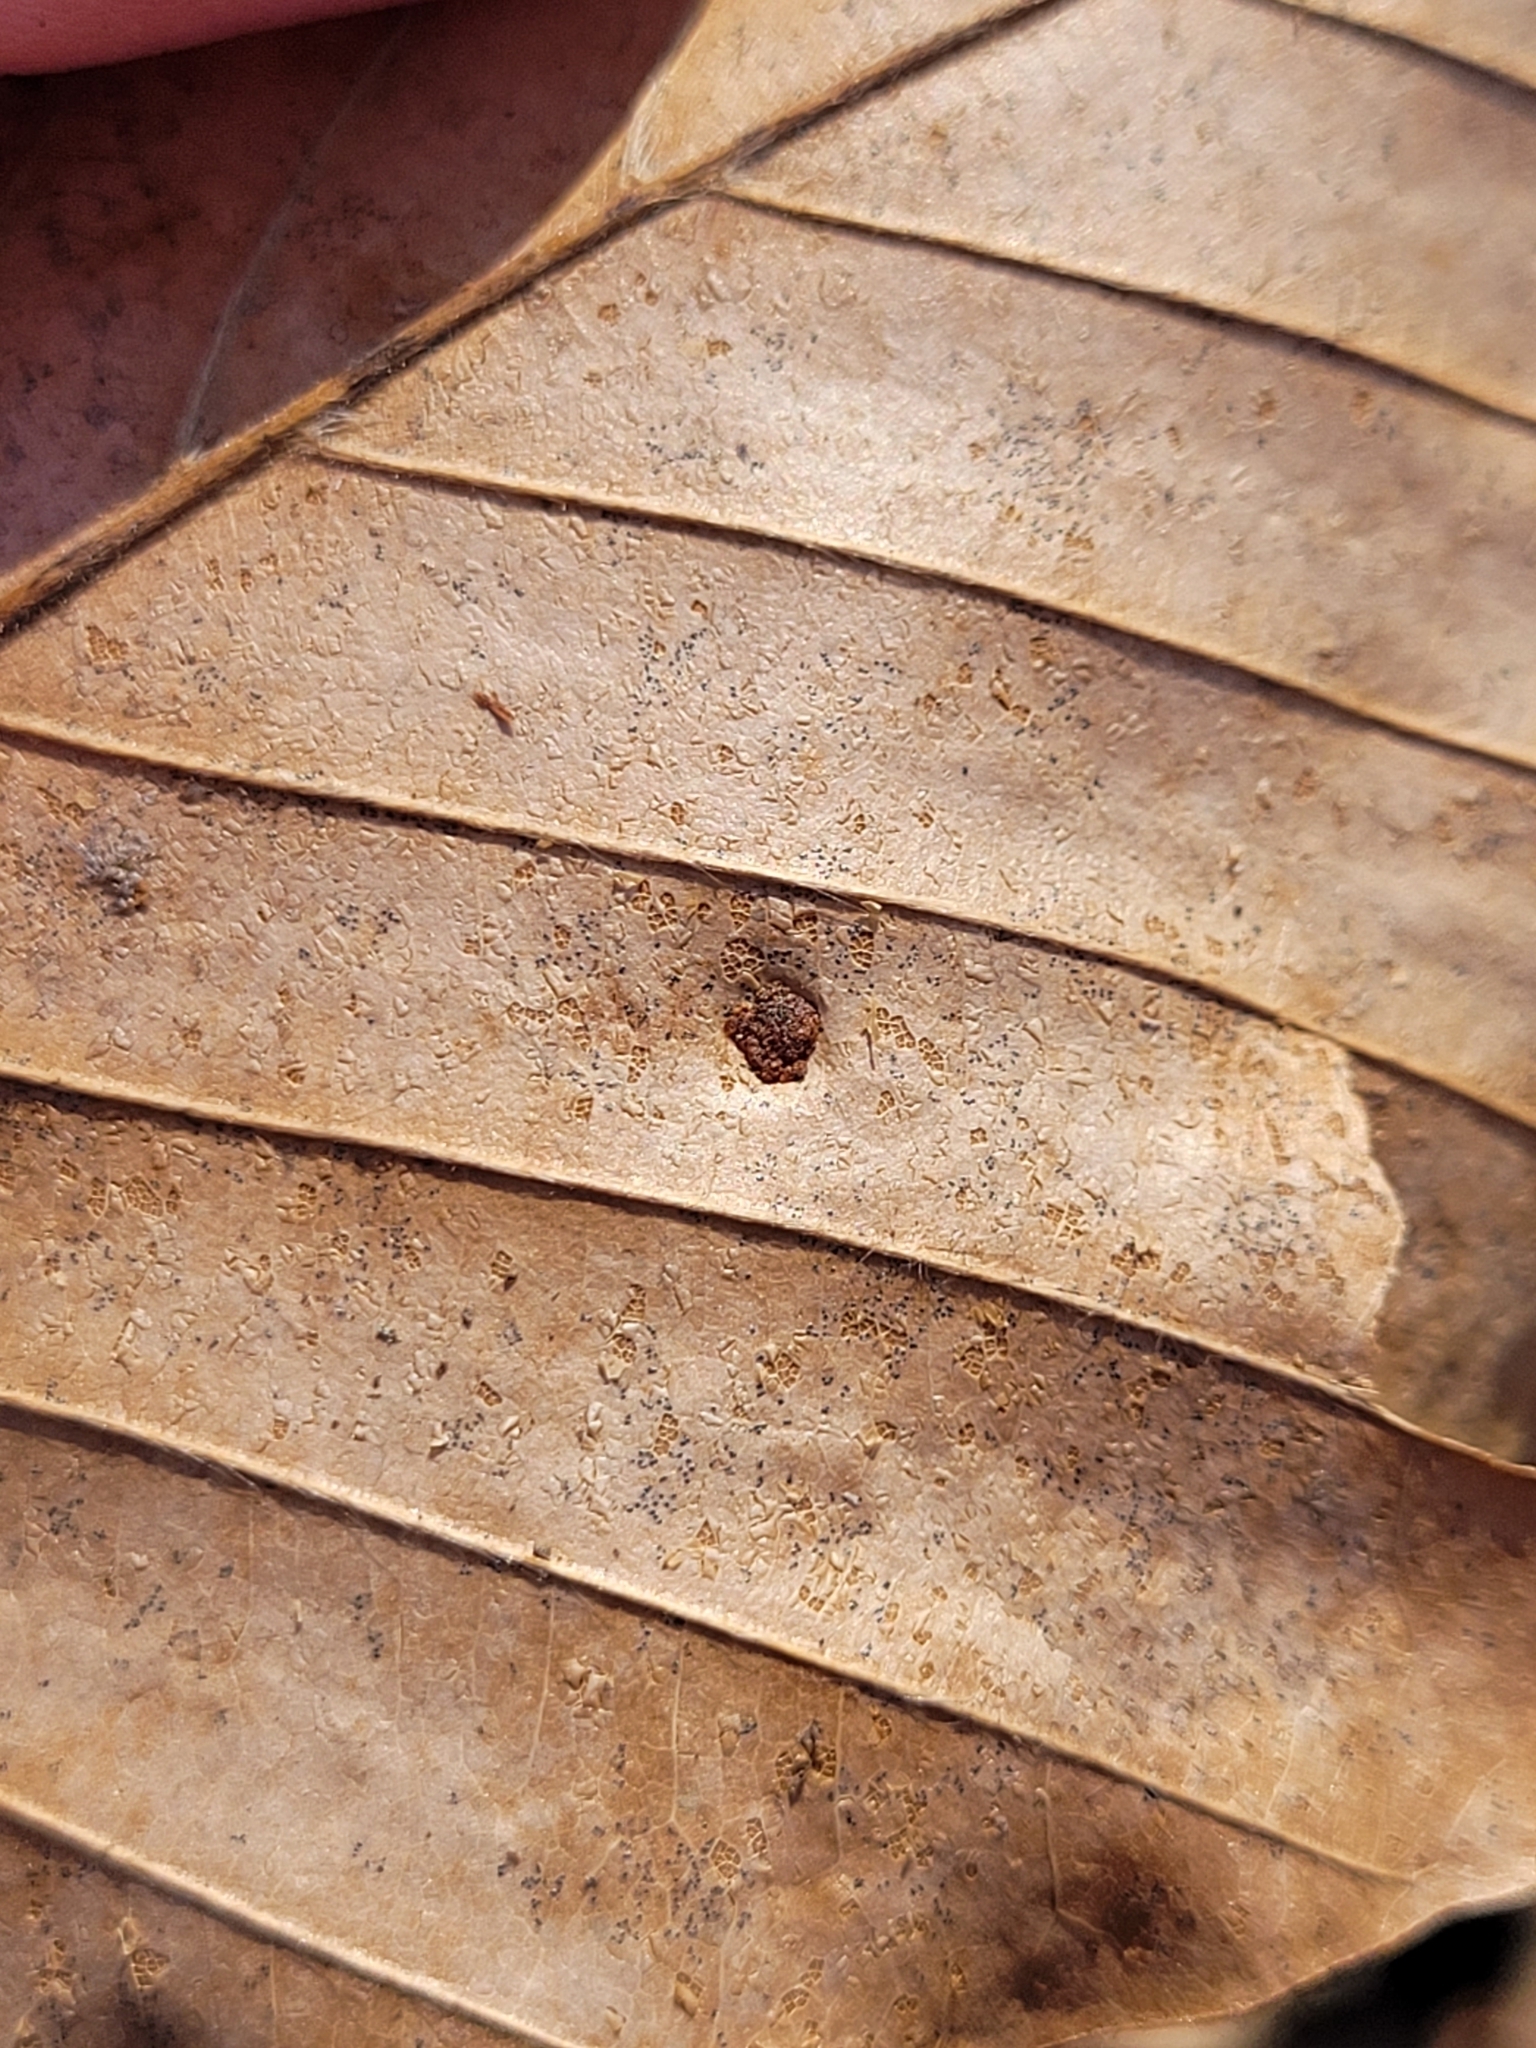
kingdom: Animalia
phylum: Arthropoda
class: Arachnida
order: Trombidiformes
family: Eriophyidae
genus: Acalitus
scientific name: Acalitus
